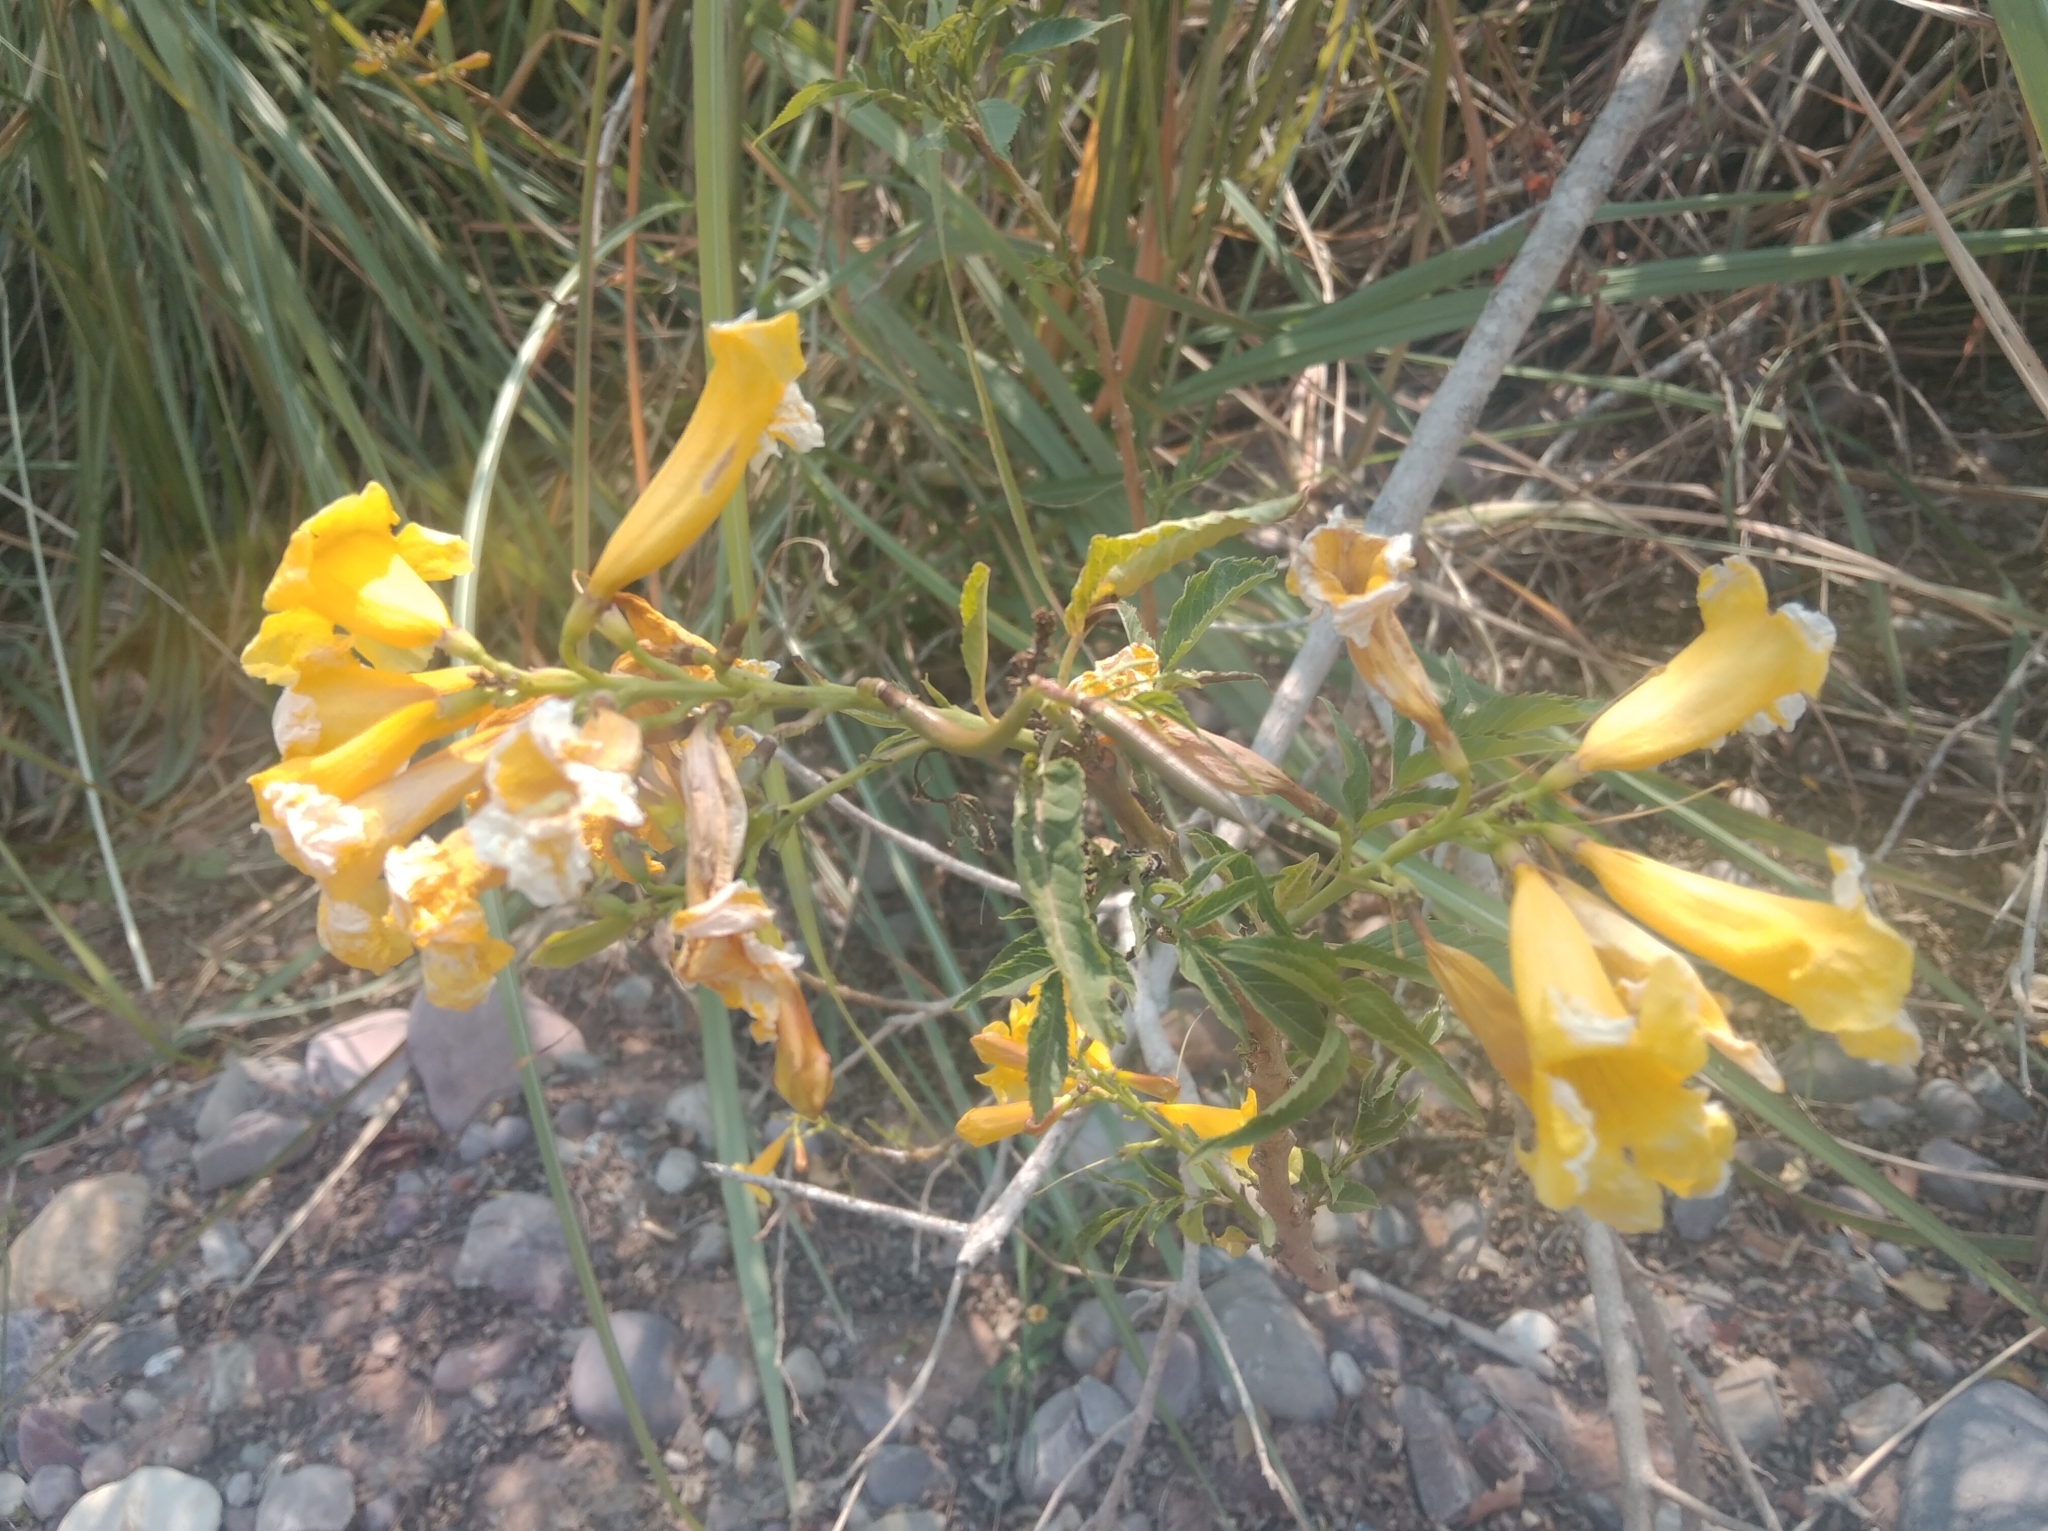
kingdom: Plantae
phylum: Tracheophyta
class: Magnoliopsida
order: Lamiales
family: Bignoniaceae
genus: Tecoma
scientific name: Tecoma stans
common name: Yellow trumpetbush
